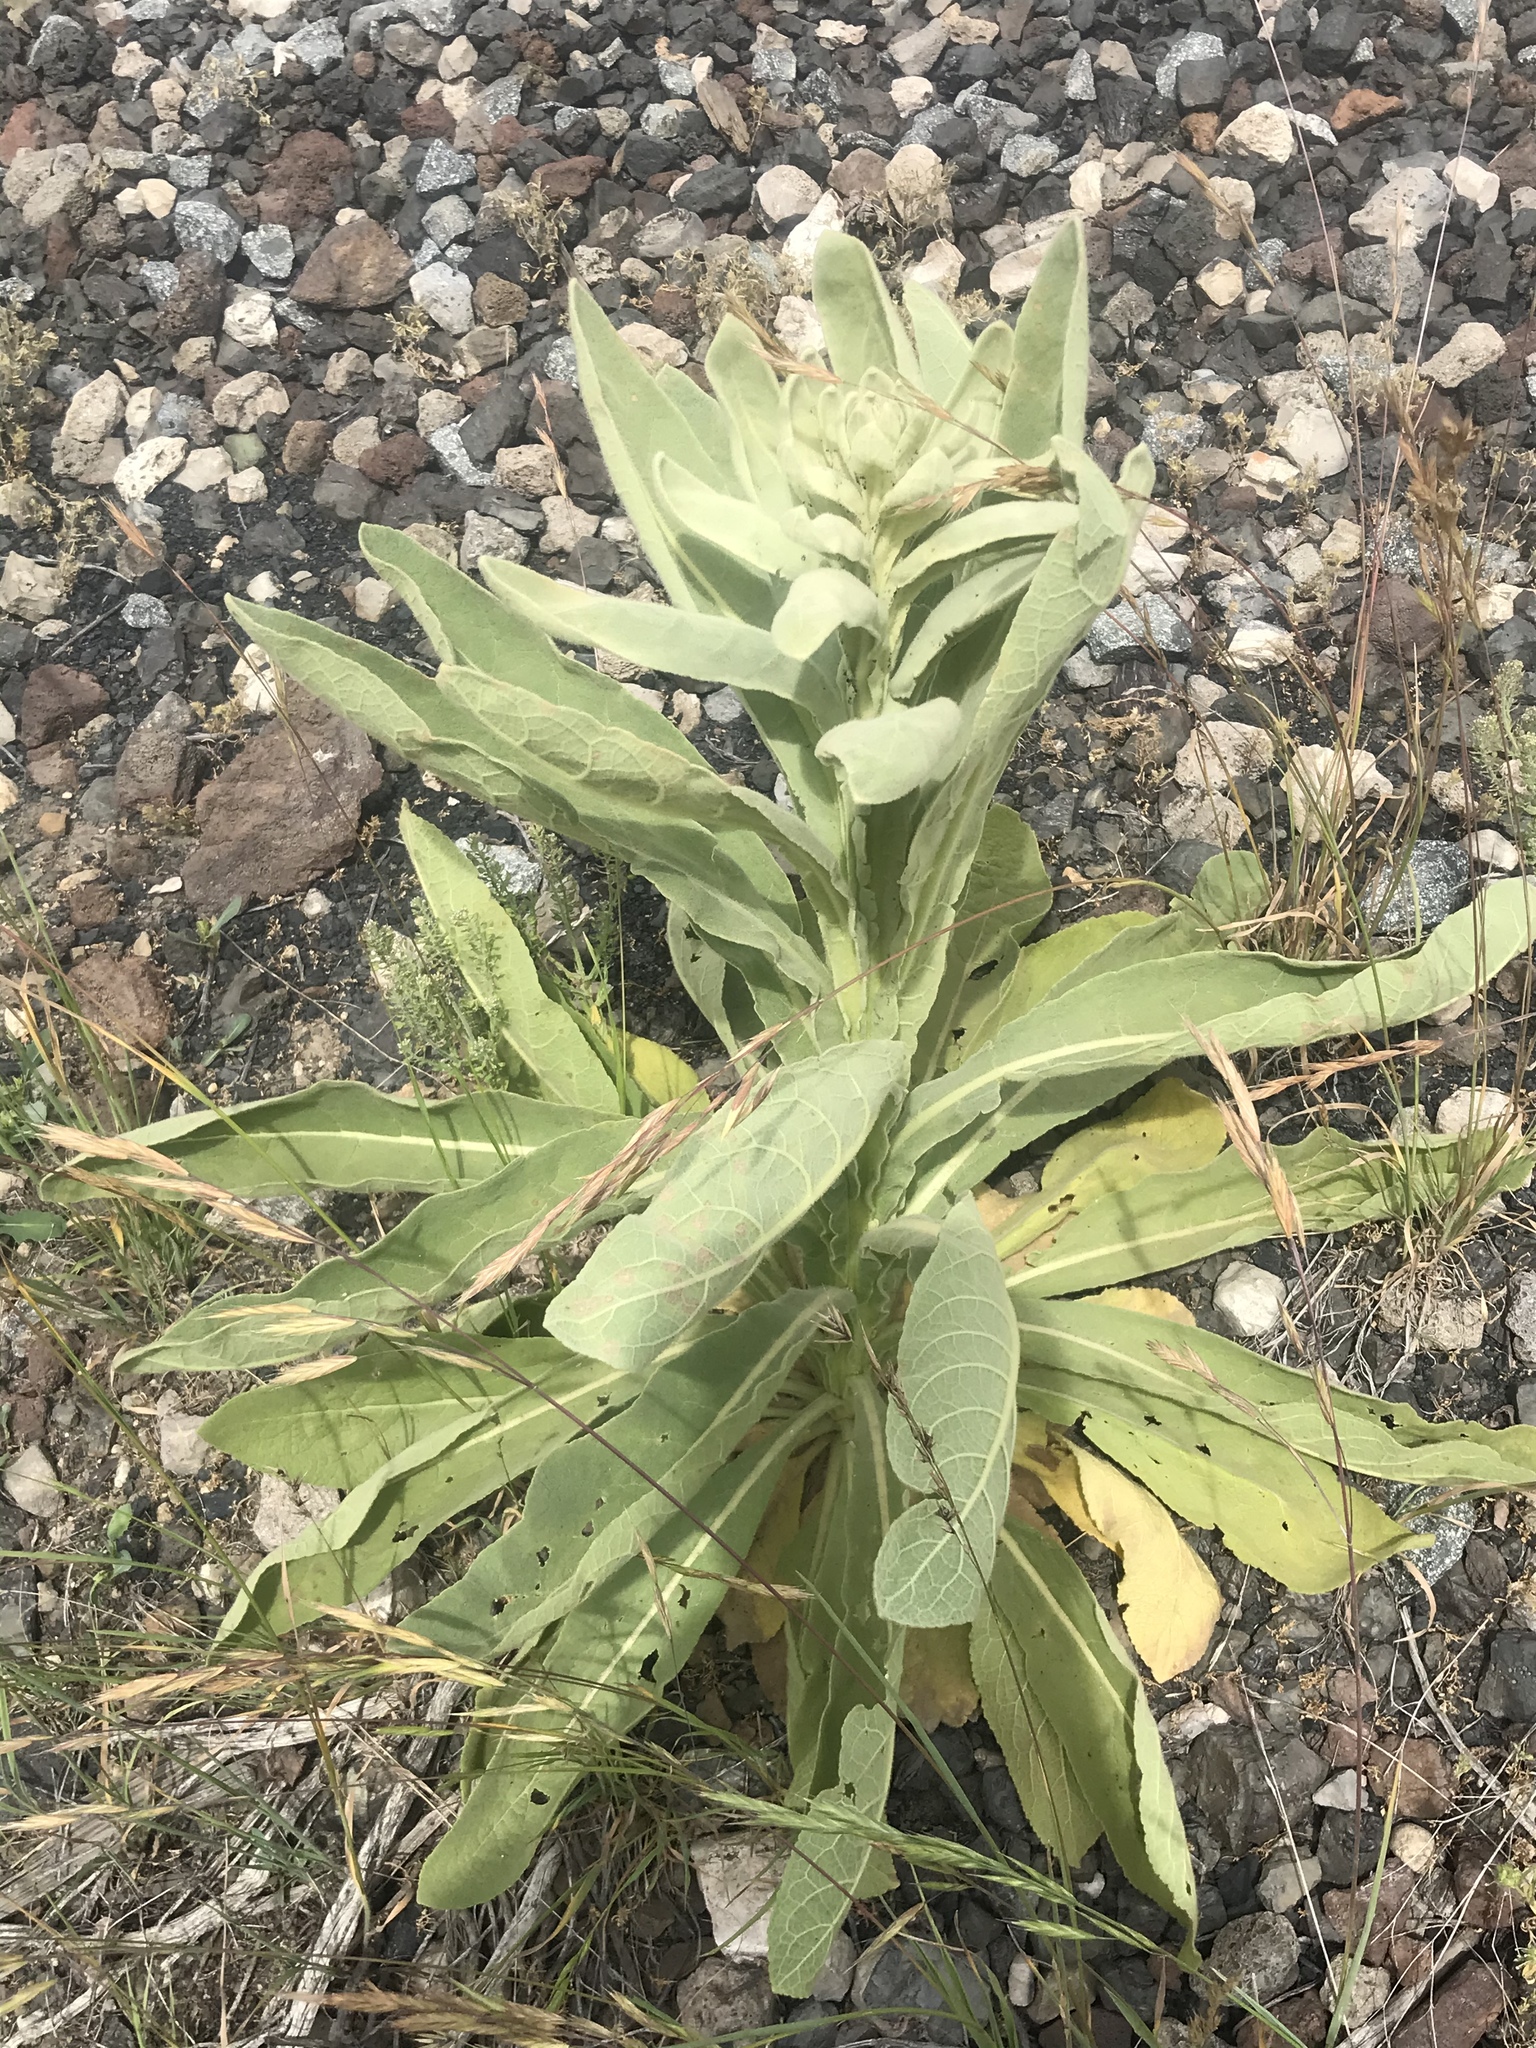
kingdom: Plantae
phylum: Tracheophyta
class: Magnoliopsida
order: Lamiales
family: Scrophulariaceae
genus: Verbascum
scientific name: Verbascum thapsus
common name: Common mullein
